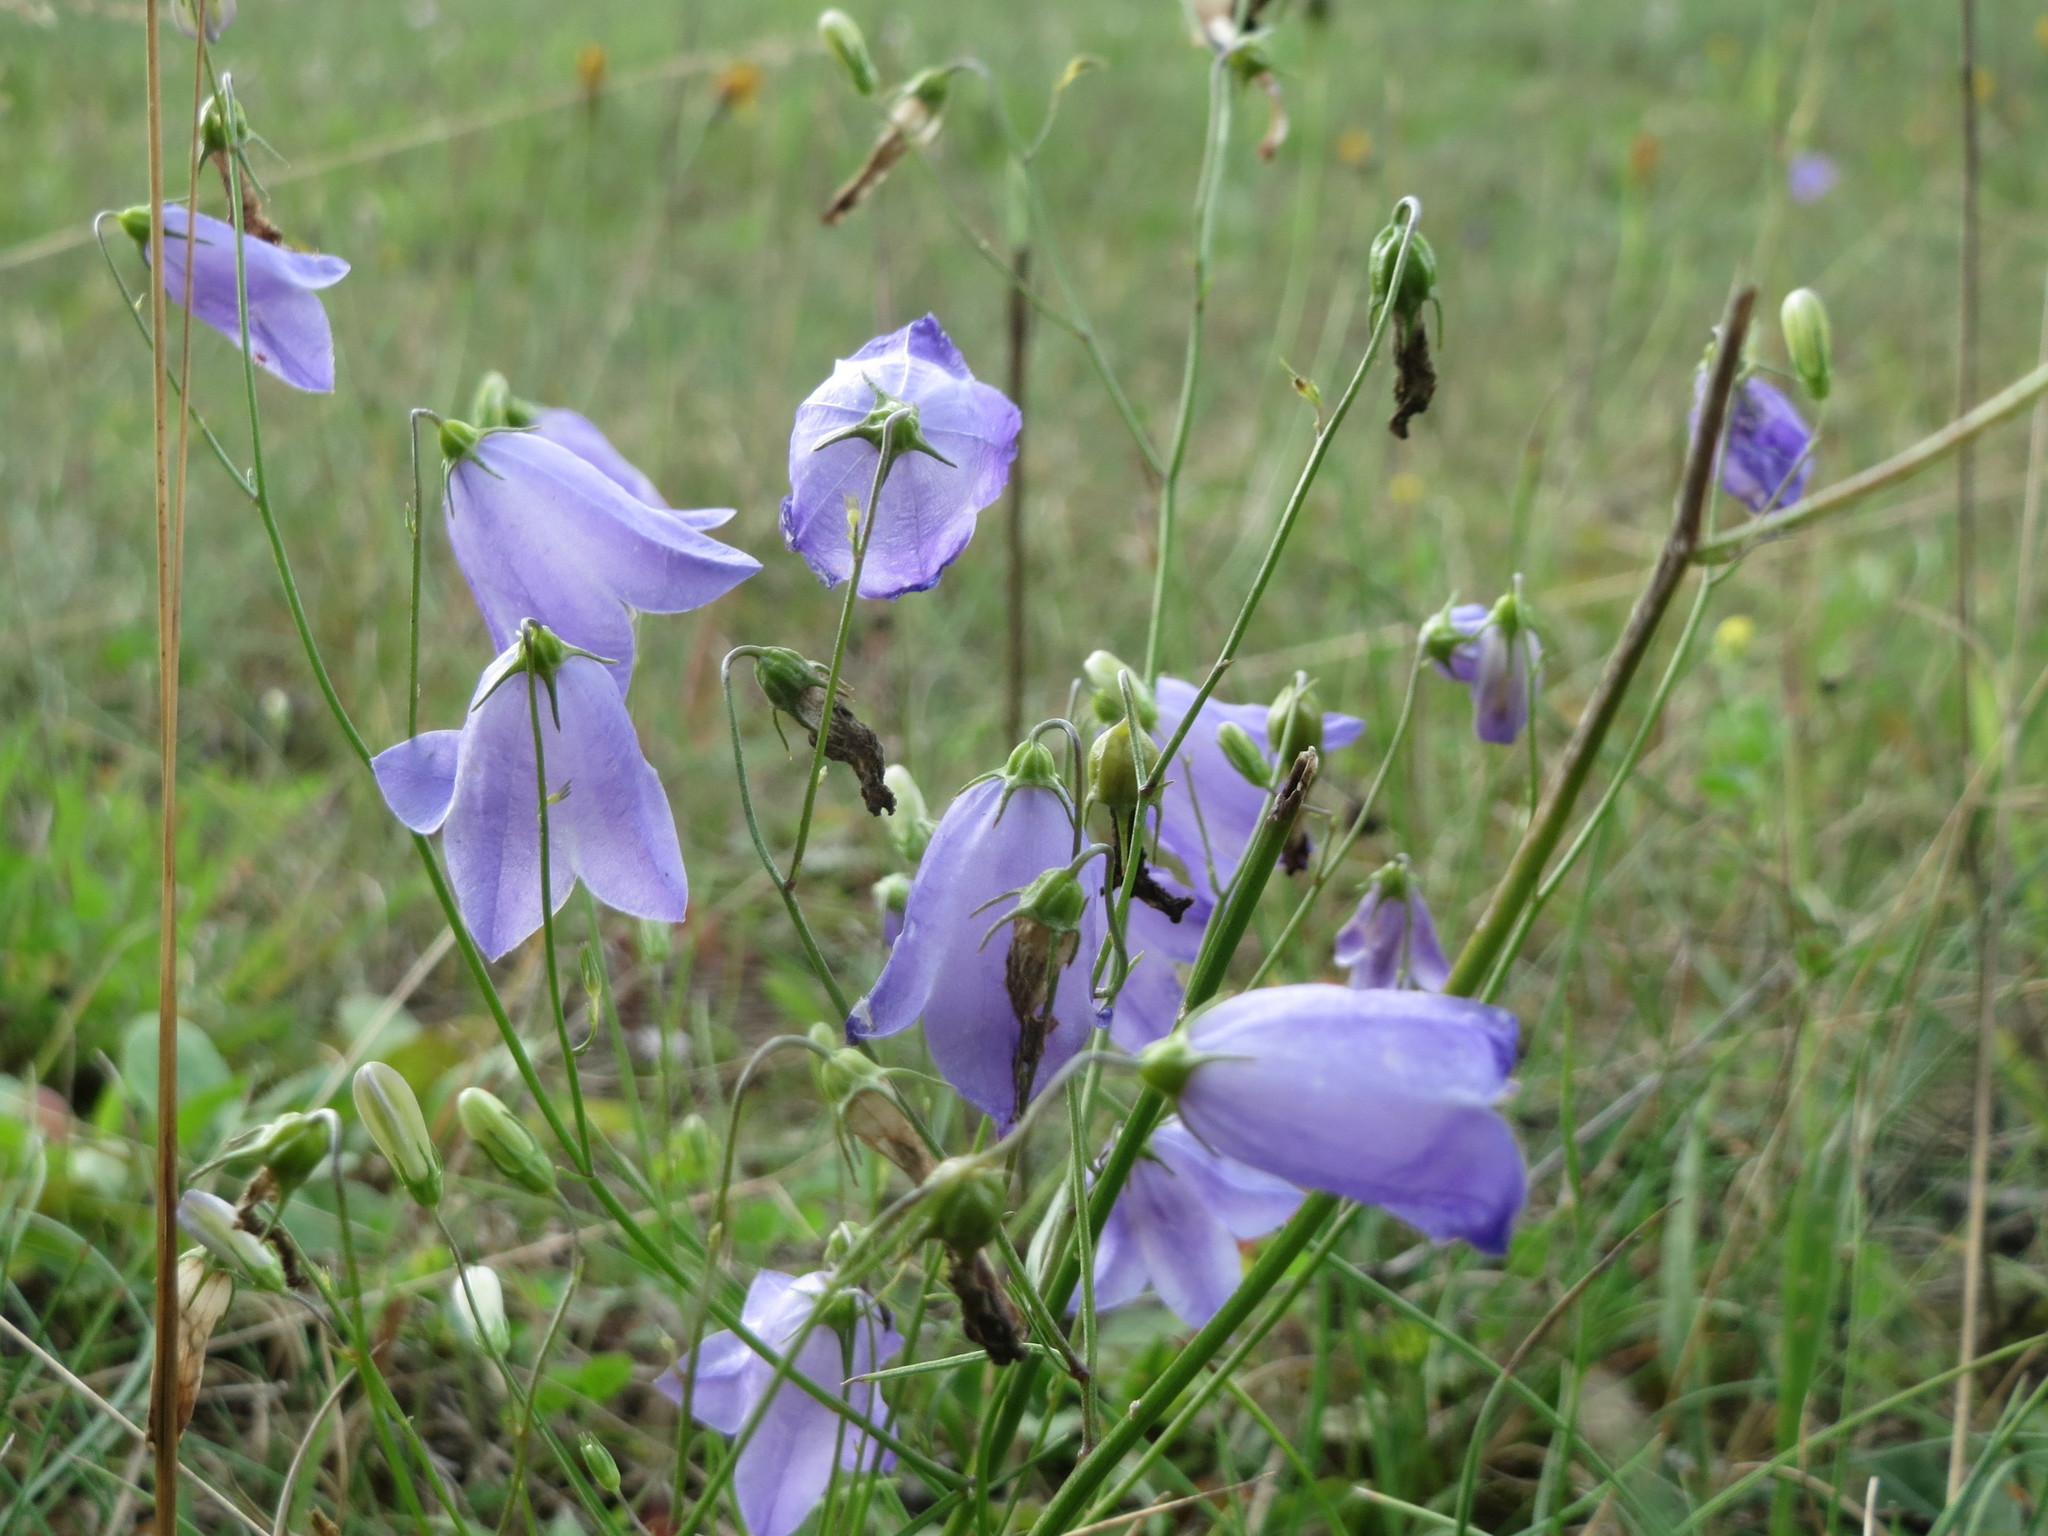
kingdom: Plantae
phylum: Tracheophyta
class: Magnoliopsida
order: Asterales
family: Campanulaceae
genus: Campanula
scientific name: Campanula rotundifolia
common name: Harebell
